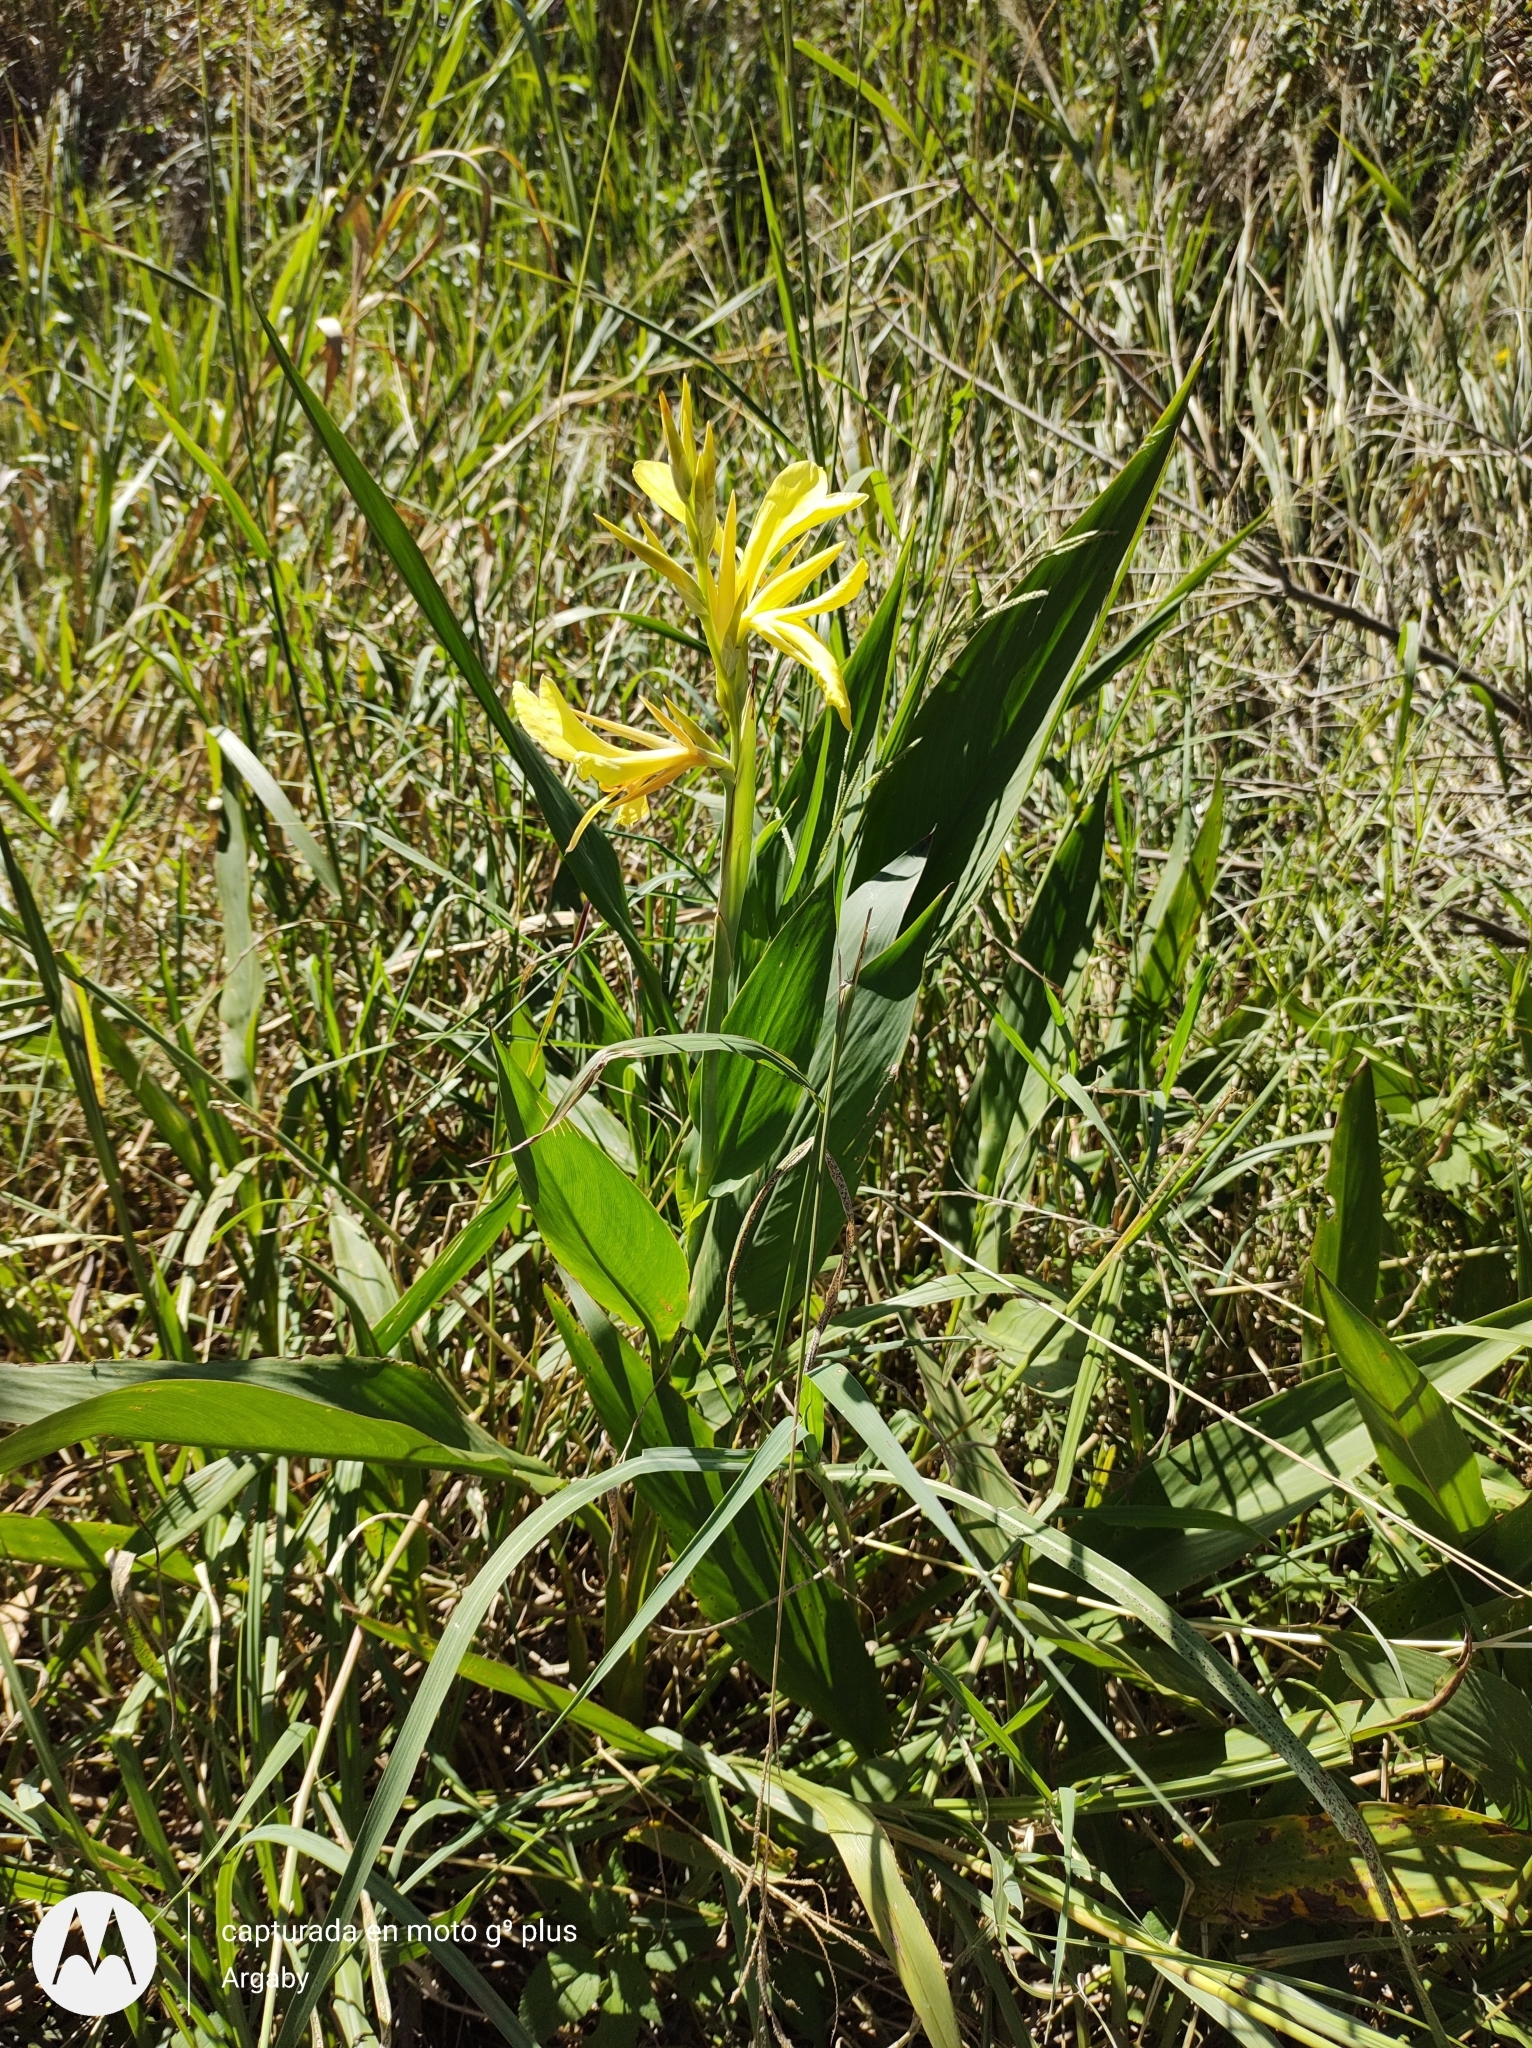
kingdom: Plantae
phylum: Tracheophyta
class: Liliopsida
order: Zingiberales
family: Cannaceae
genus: Canna
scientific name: Canna glauca
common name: Louisiana canna
